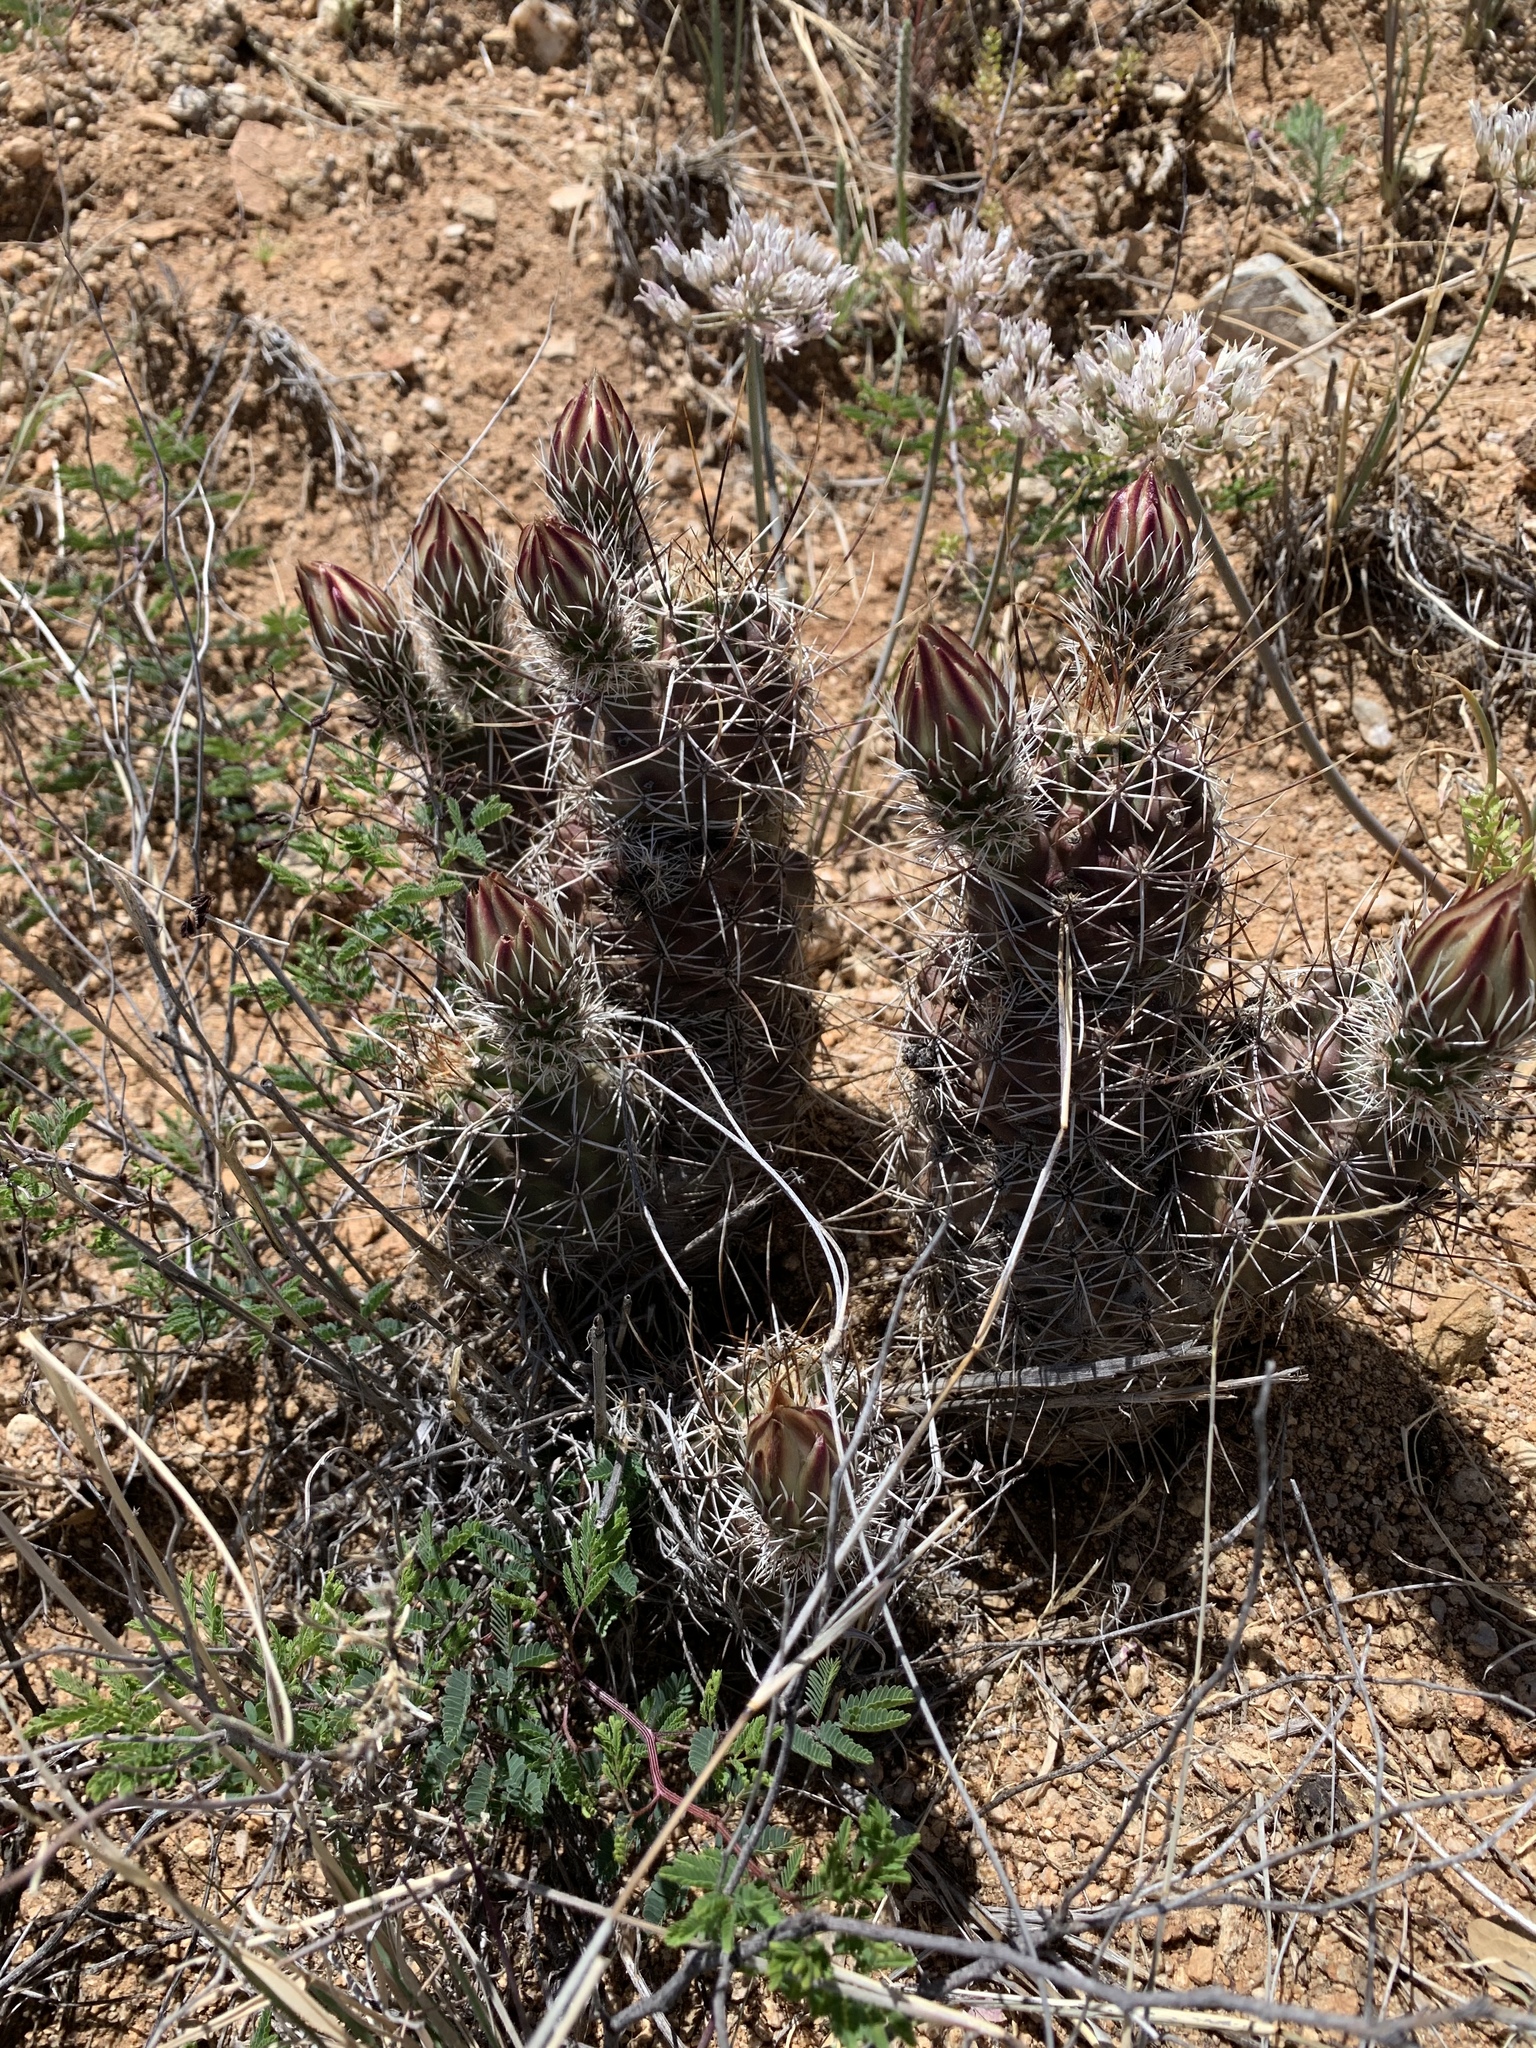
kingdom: Plantae
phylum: Tracheophyta
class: Magnoliopsida
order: Caryophyllales
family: Cactaceae
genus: Echinocereus
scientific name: Echinocereus fendleri
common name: Fendler's hedgehog cactus
